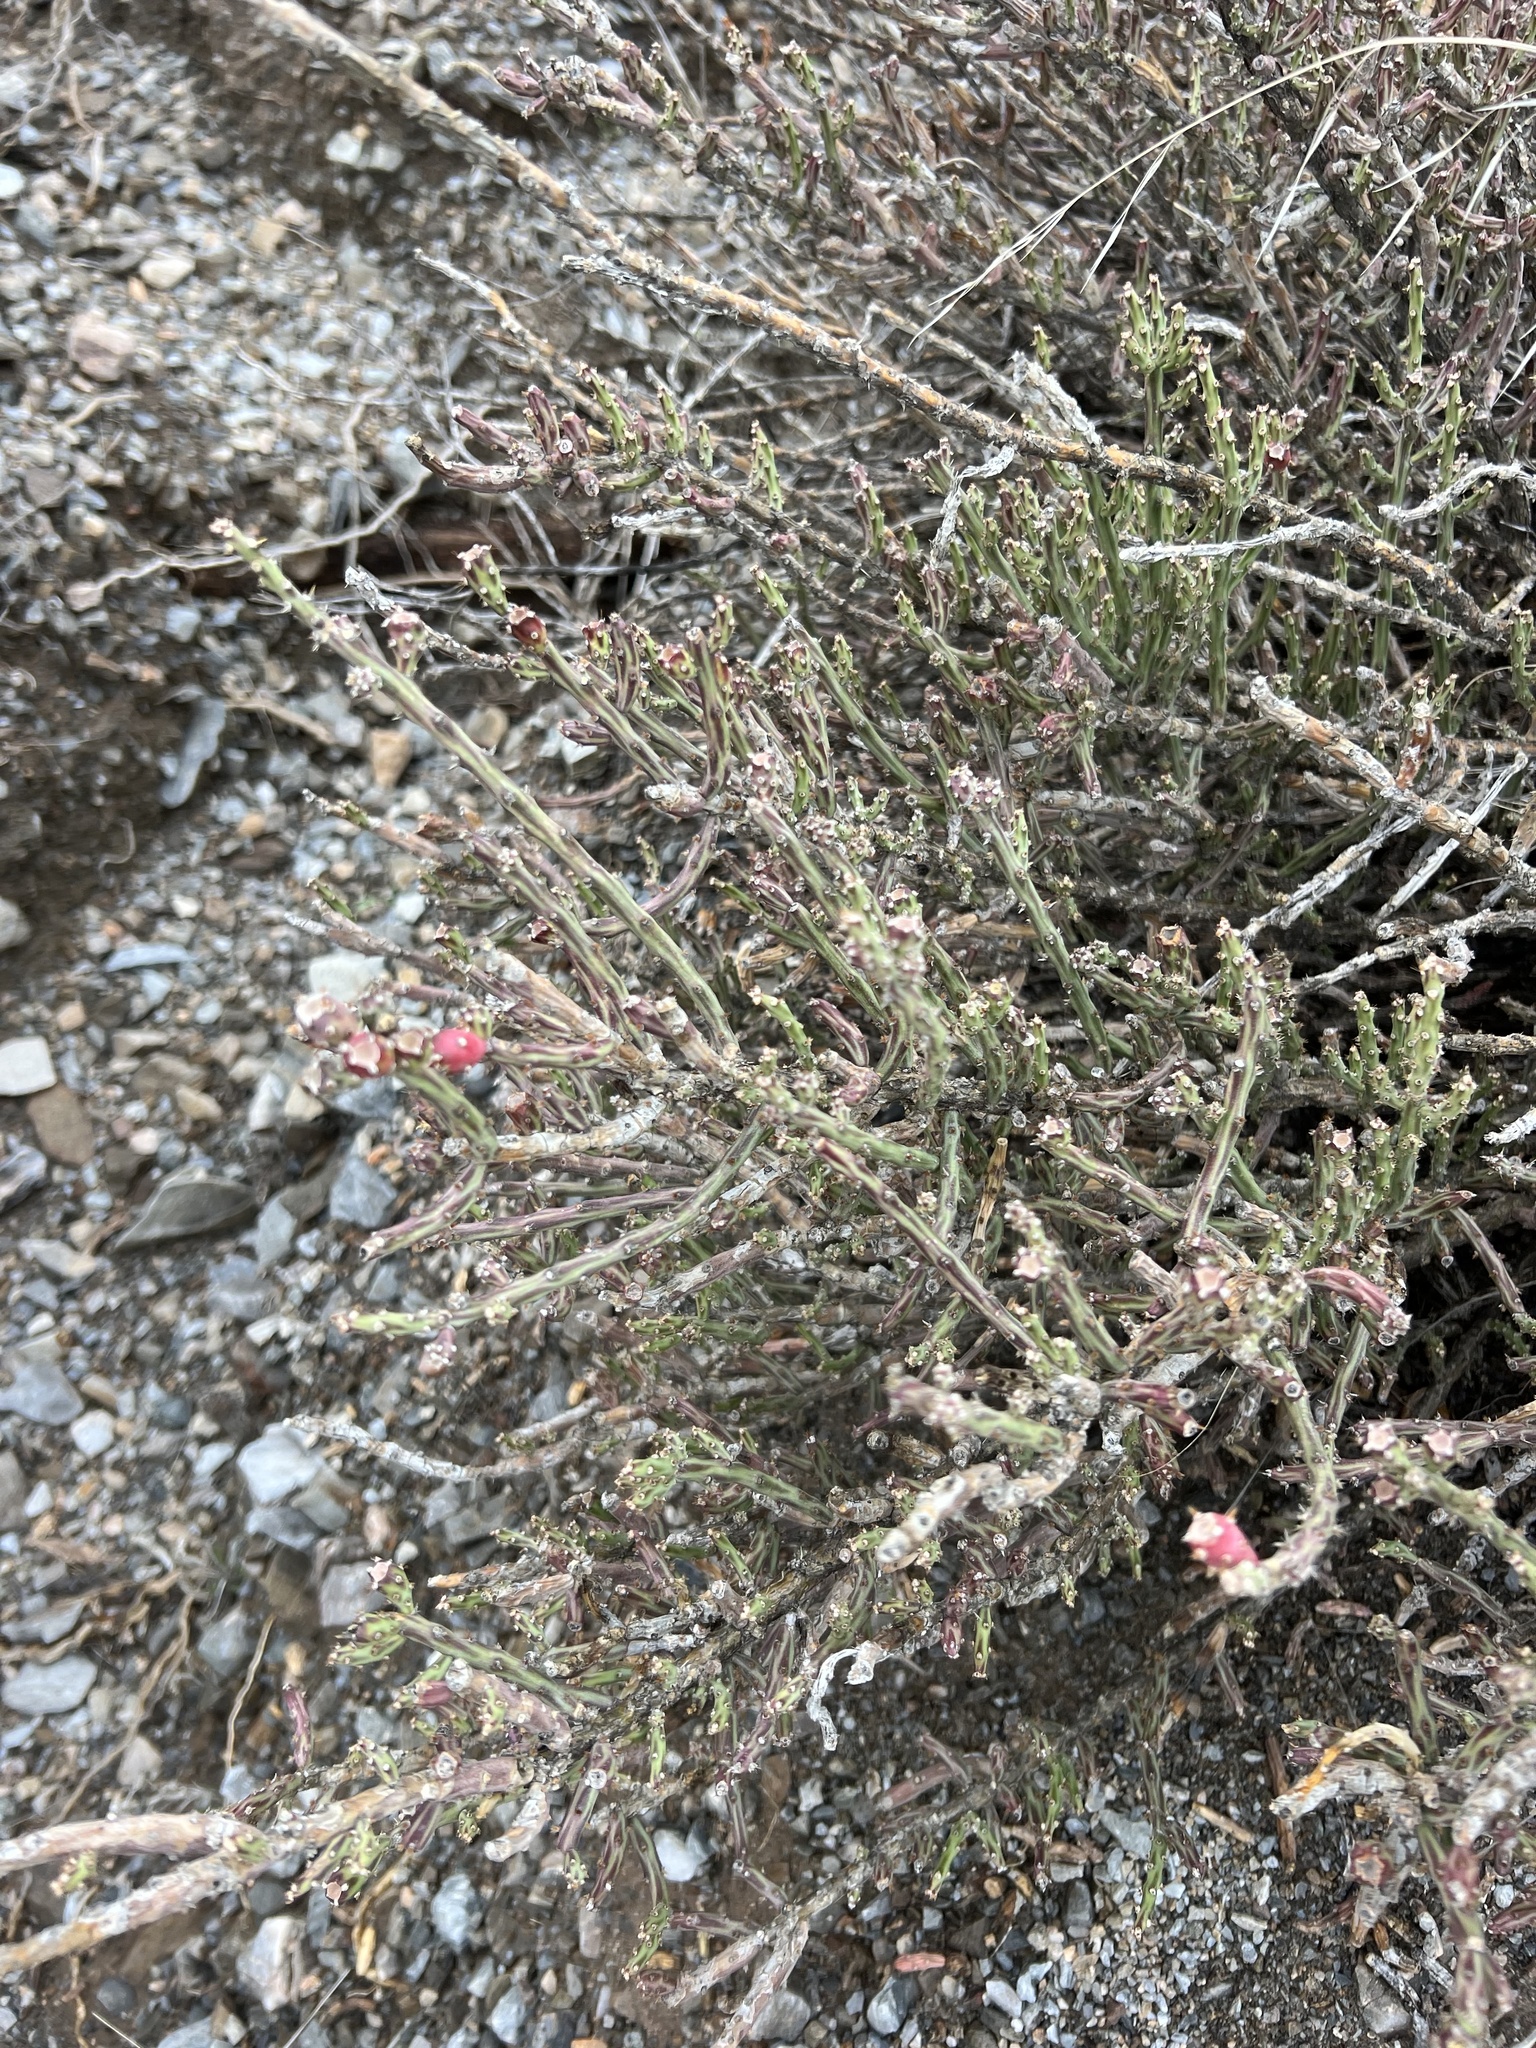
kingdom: Plantae
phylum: Tracheophyta
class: Magnoliopsida
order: Caryophyllales
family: Cactaceae
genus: Cylindropuntia
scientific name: Cylindropuntia leptocaulis
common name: Christmas cactus
